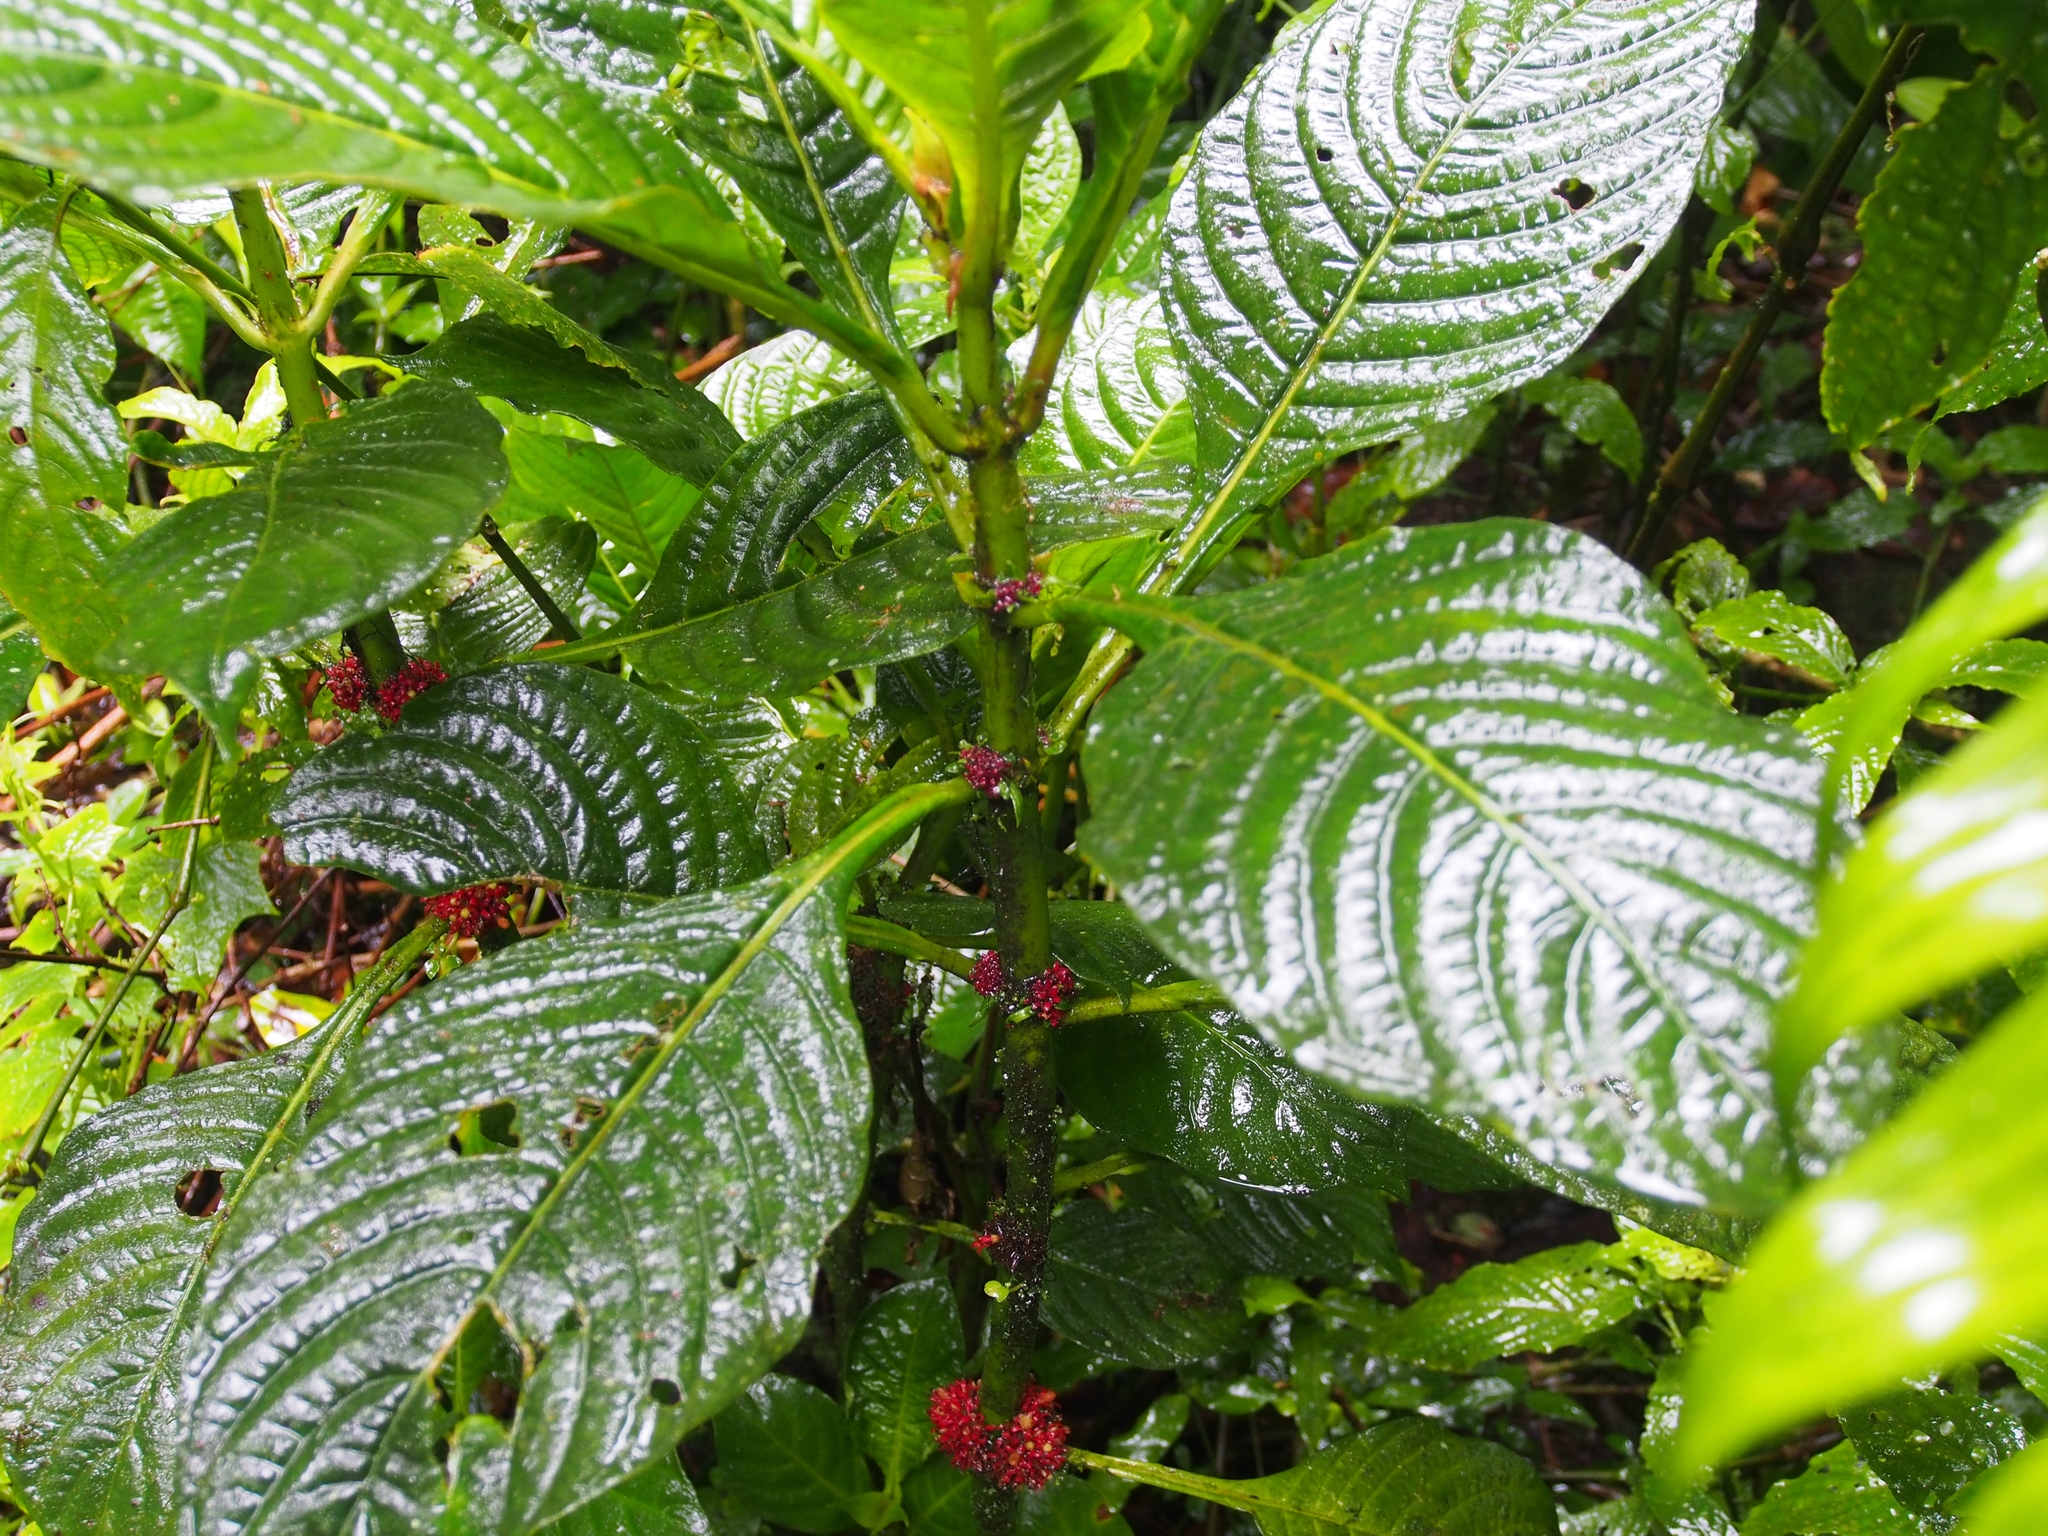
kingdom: Plantae
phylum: Tracheophyta
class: Magnoliopsida
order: Gentianales
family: Rubiaceae
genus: Hoffmannia
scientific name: Hoffmannia congesta
